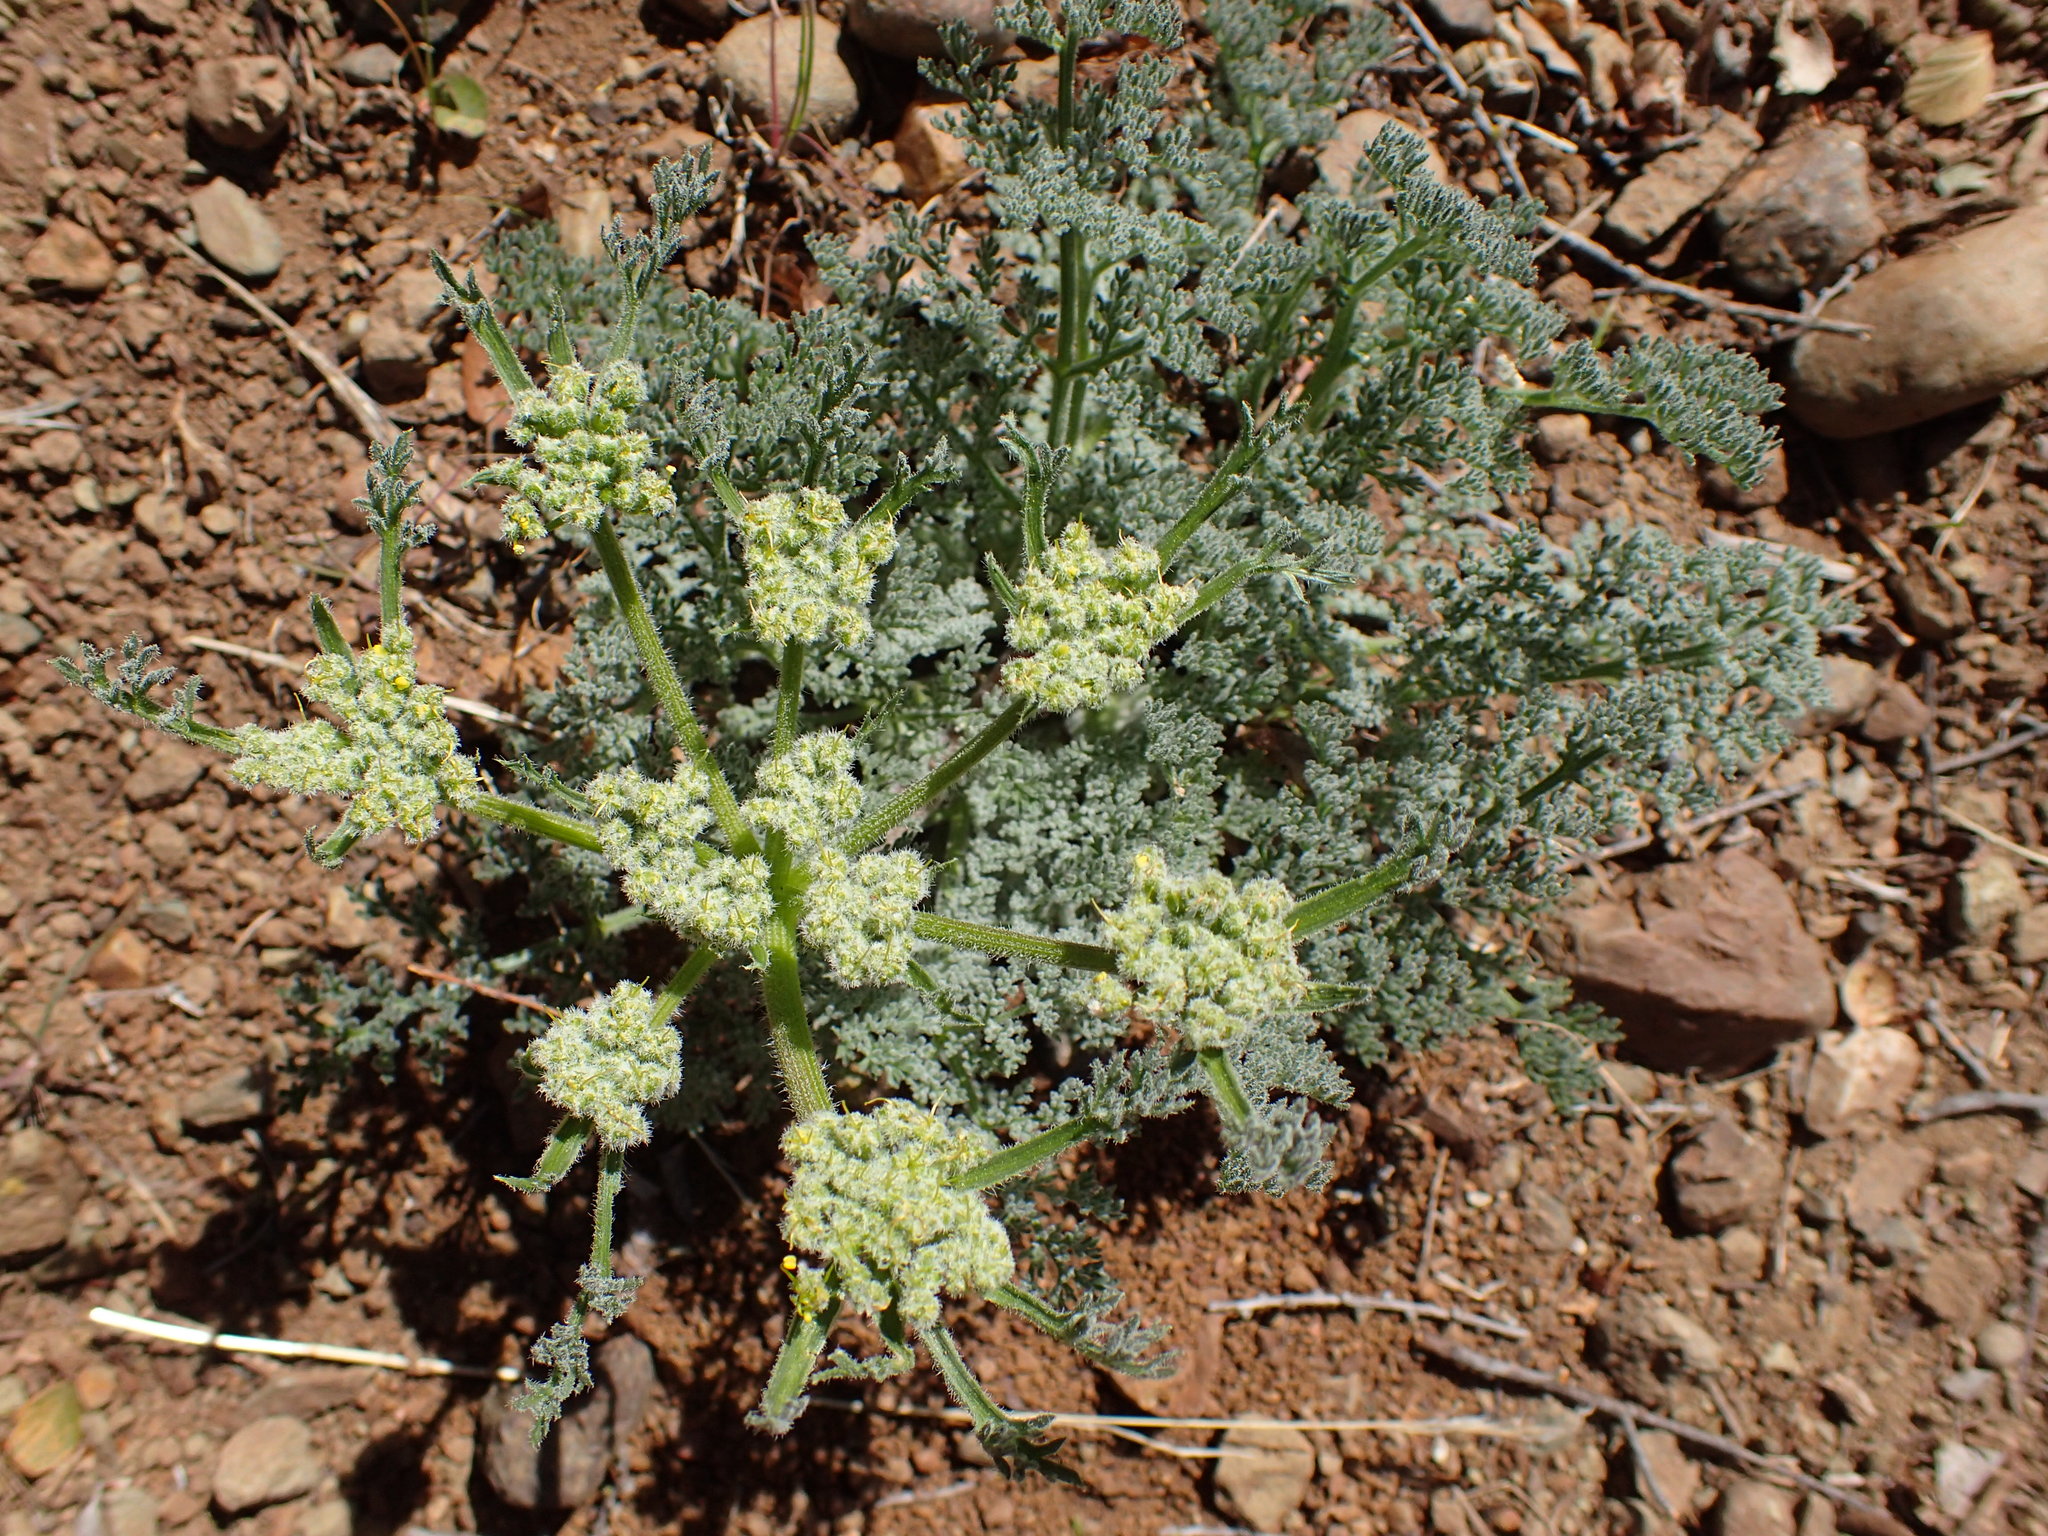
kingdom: Plantae
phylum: Tracheophyta
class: Magnoliopsida
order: Apiales
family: Apiaceae
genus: Lomatium
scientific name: Lomatium dasycarpum
